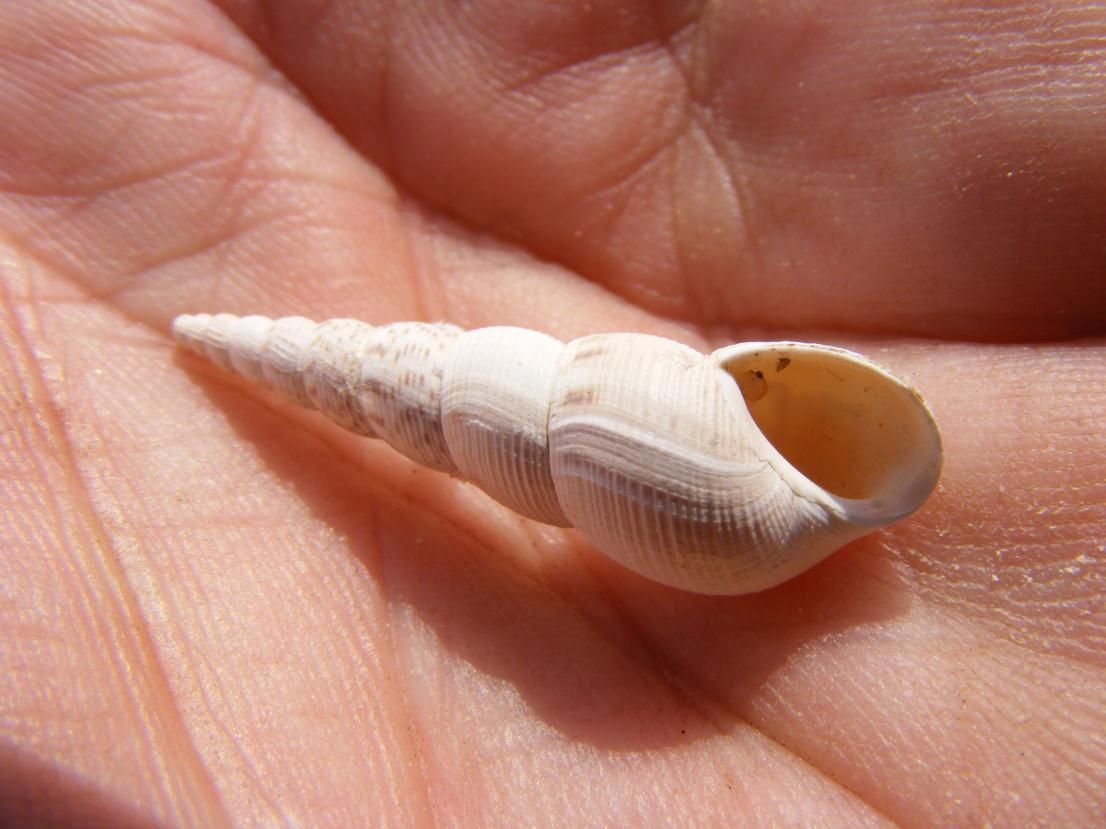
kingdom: Animalia
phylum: Mollusca
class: Gastropoda
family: Thiaridae
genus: Melanoides
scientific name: Melanoides tuberculata
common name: Red-rim melania
